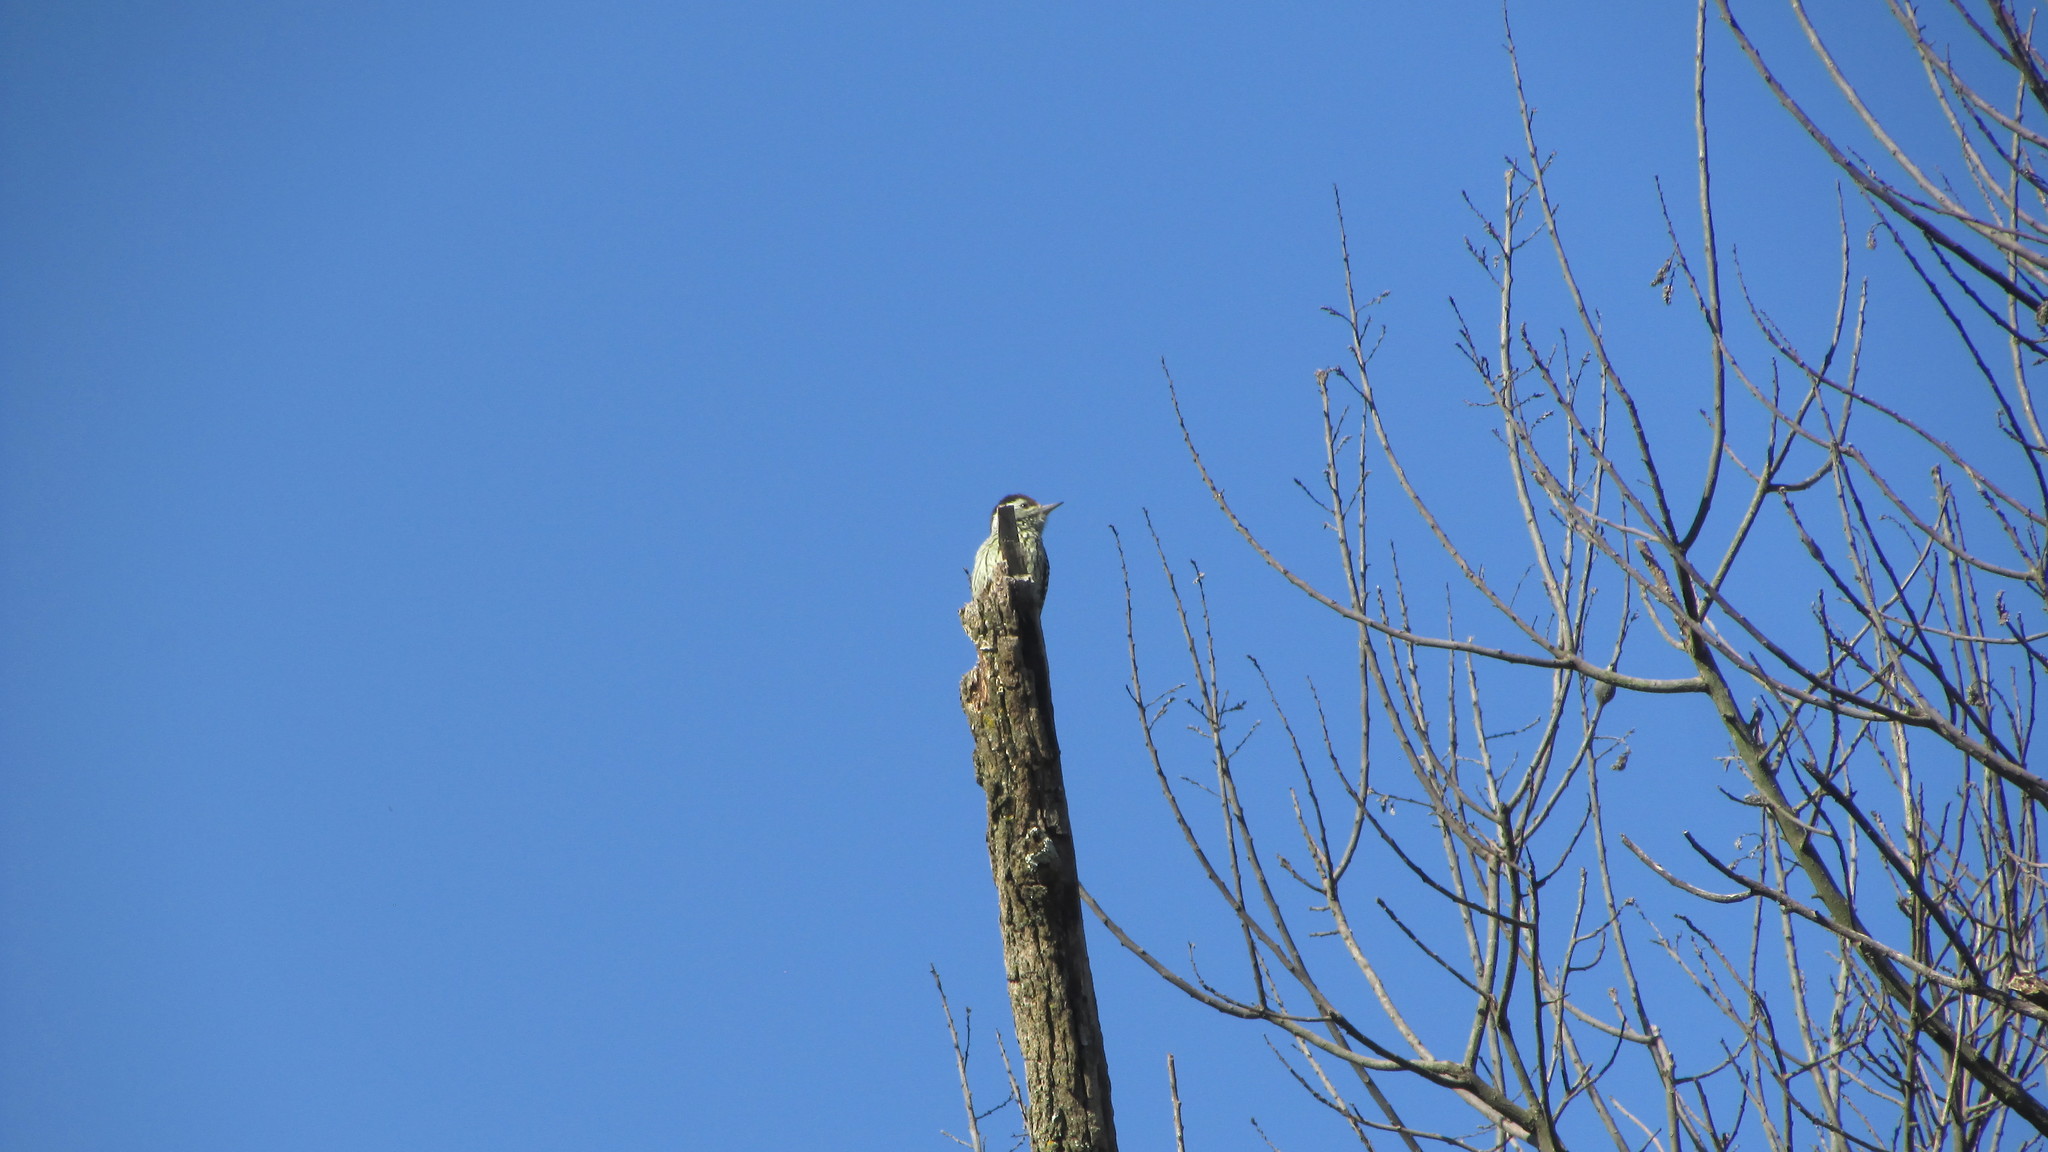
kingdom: Animalia
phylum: Chordata
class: Aves
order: Piciformes
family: Picidae
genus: Dendropicos
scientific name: Dendropicos fuscescens
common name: Cardinal woodpecker
